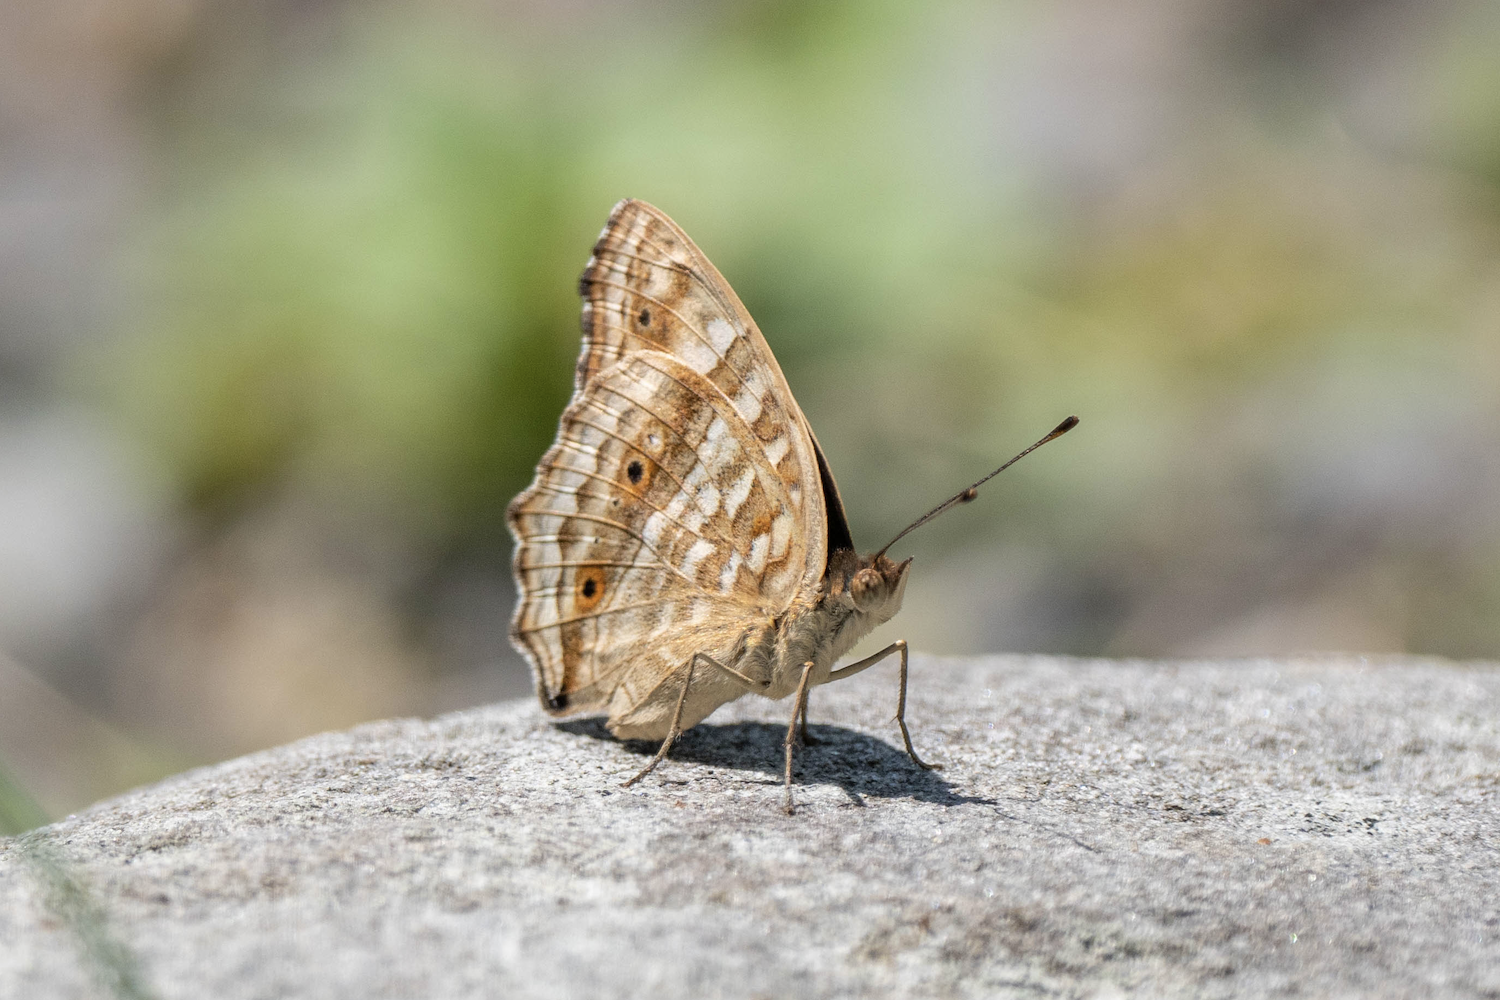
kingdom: Animalia
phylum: Arthropoda
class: Insecta
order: Lepidoptera
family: Nymphalidae
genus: Junonia
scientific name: Junonia lemonias
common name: Lemon pansy
